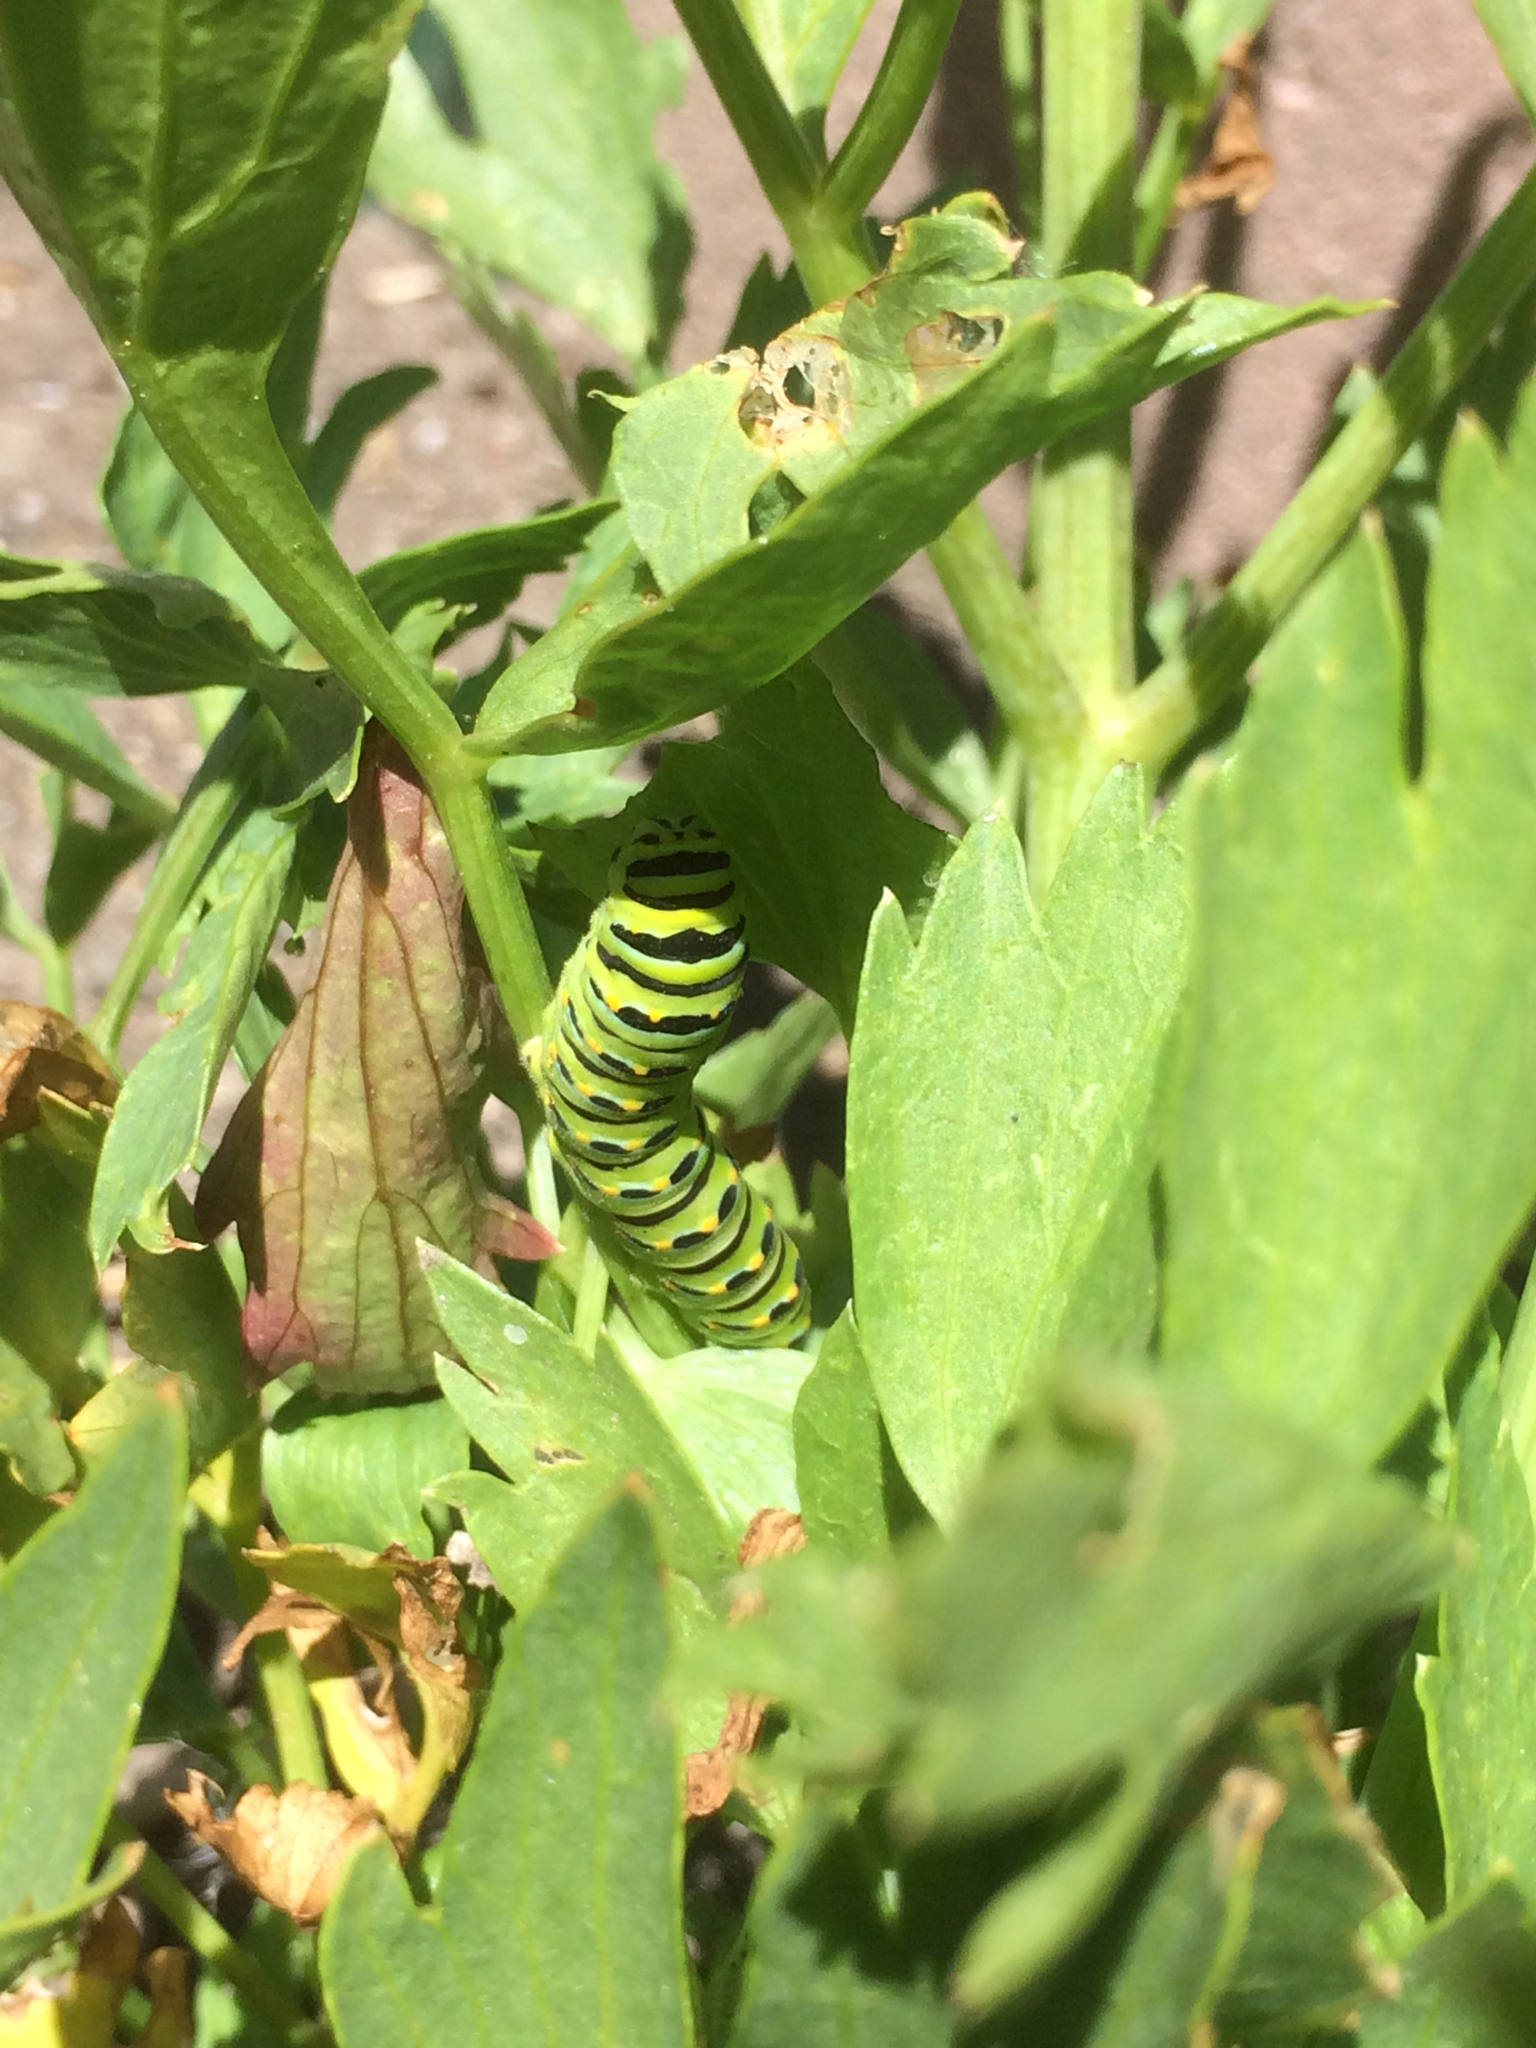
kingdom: Animalia
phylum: Arthropoda
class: Insecta
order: Lepidoptera
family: Papilionidae
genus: Papilio
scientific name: Papilio zelicaon
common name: Anise swallowtail
